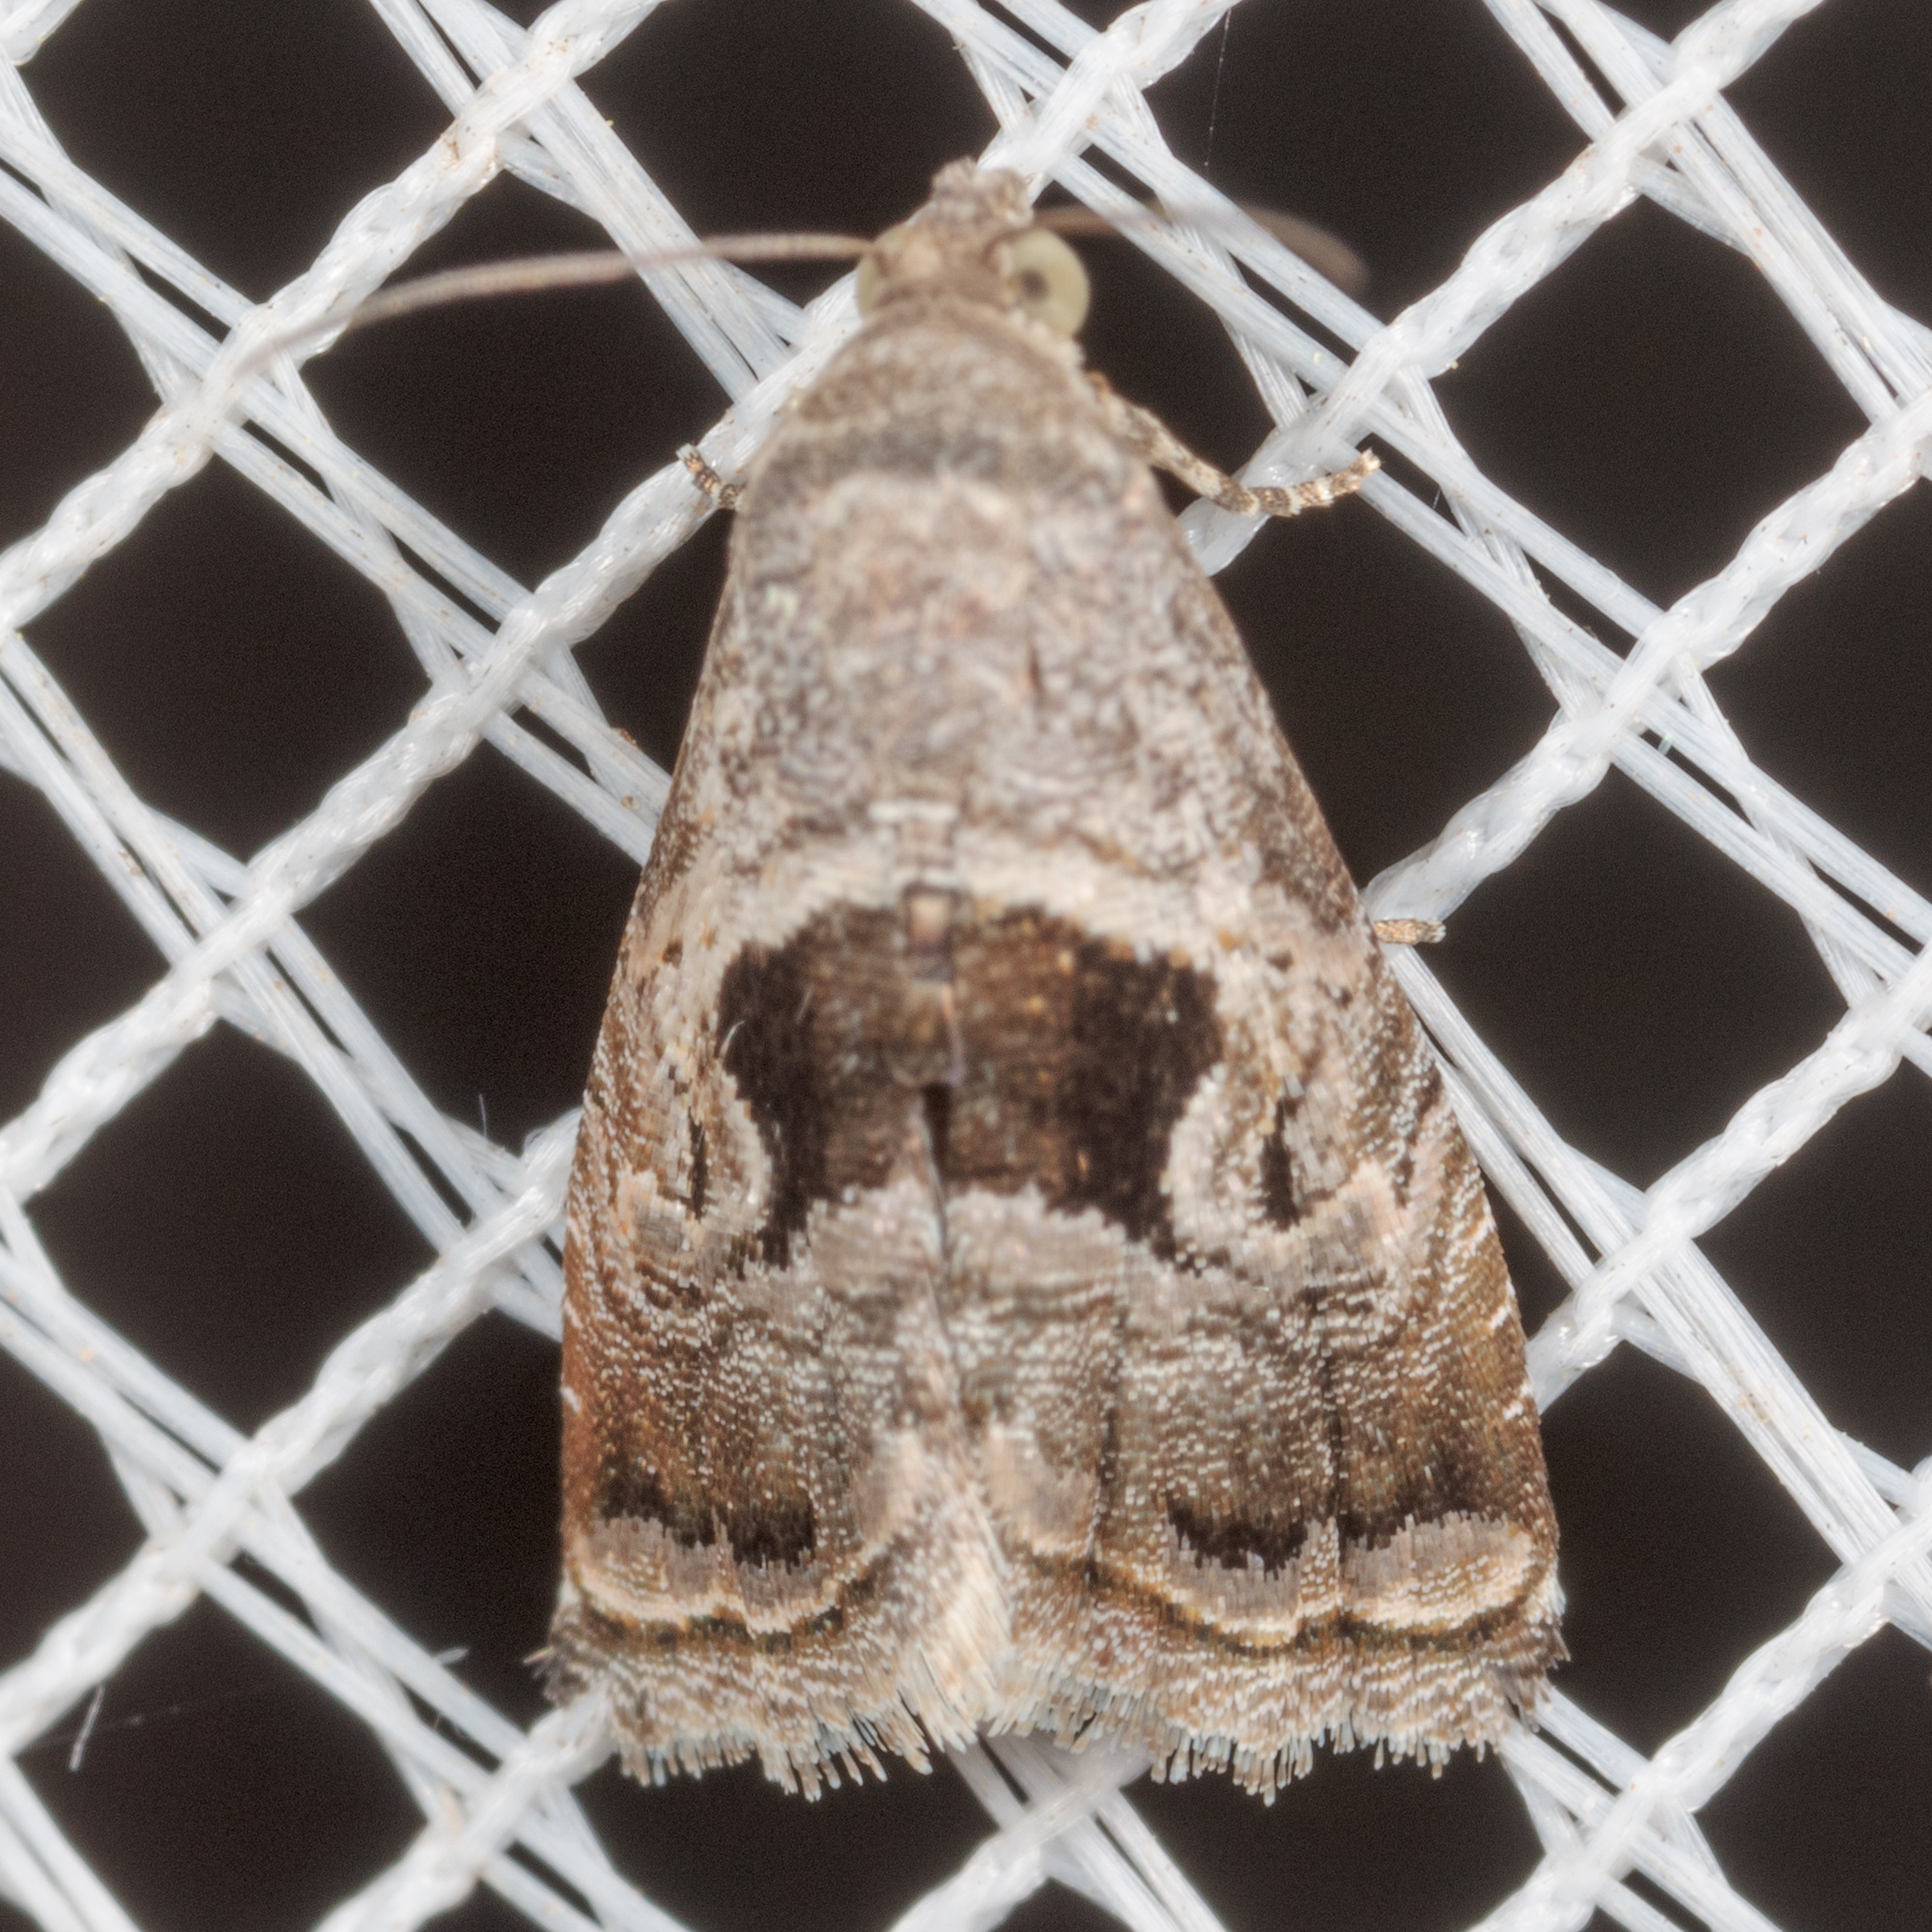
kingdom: Animalia
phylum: Arthropoda
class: Insecta
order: Lepidoptera
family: Noctuidae
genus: Tripudia
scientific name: Tripudia quadrifera
